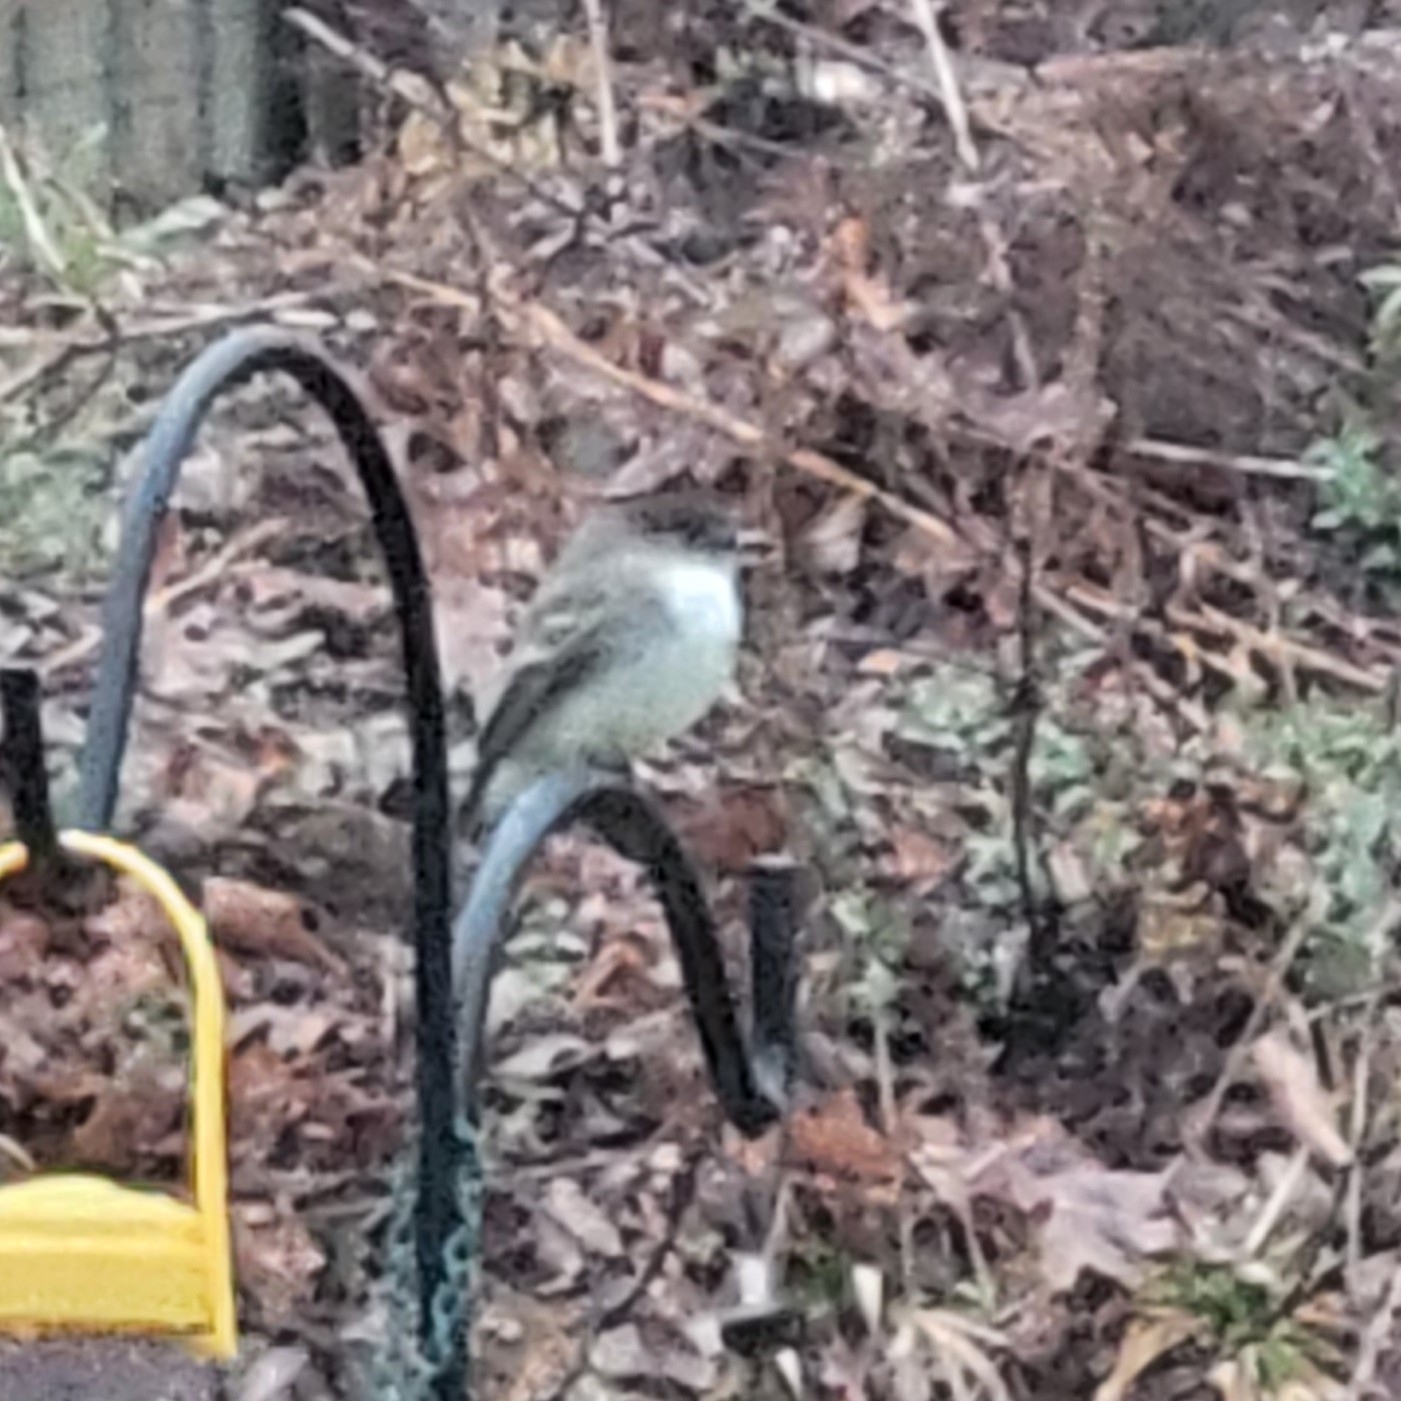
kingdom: Animalia
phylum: Chordata
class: Aves
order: Passeriformes
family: Tyrannidae
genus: Sayornis
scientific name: Sayornis phoebe
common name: Eastern phoebe
